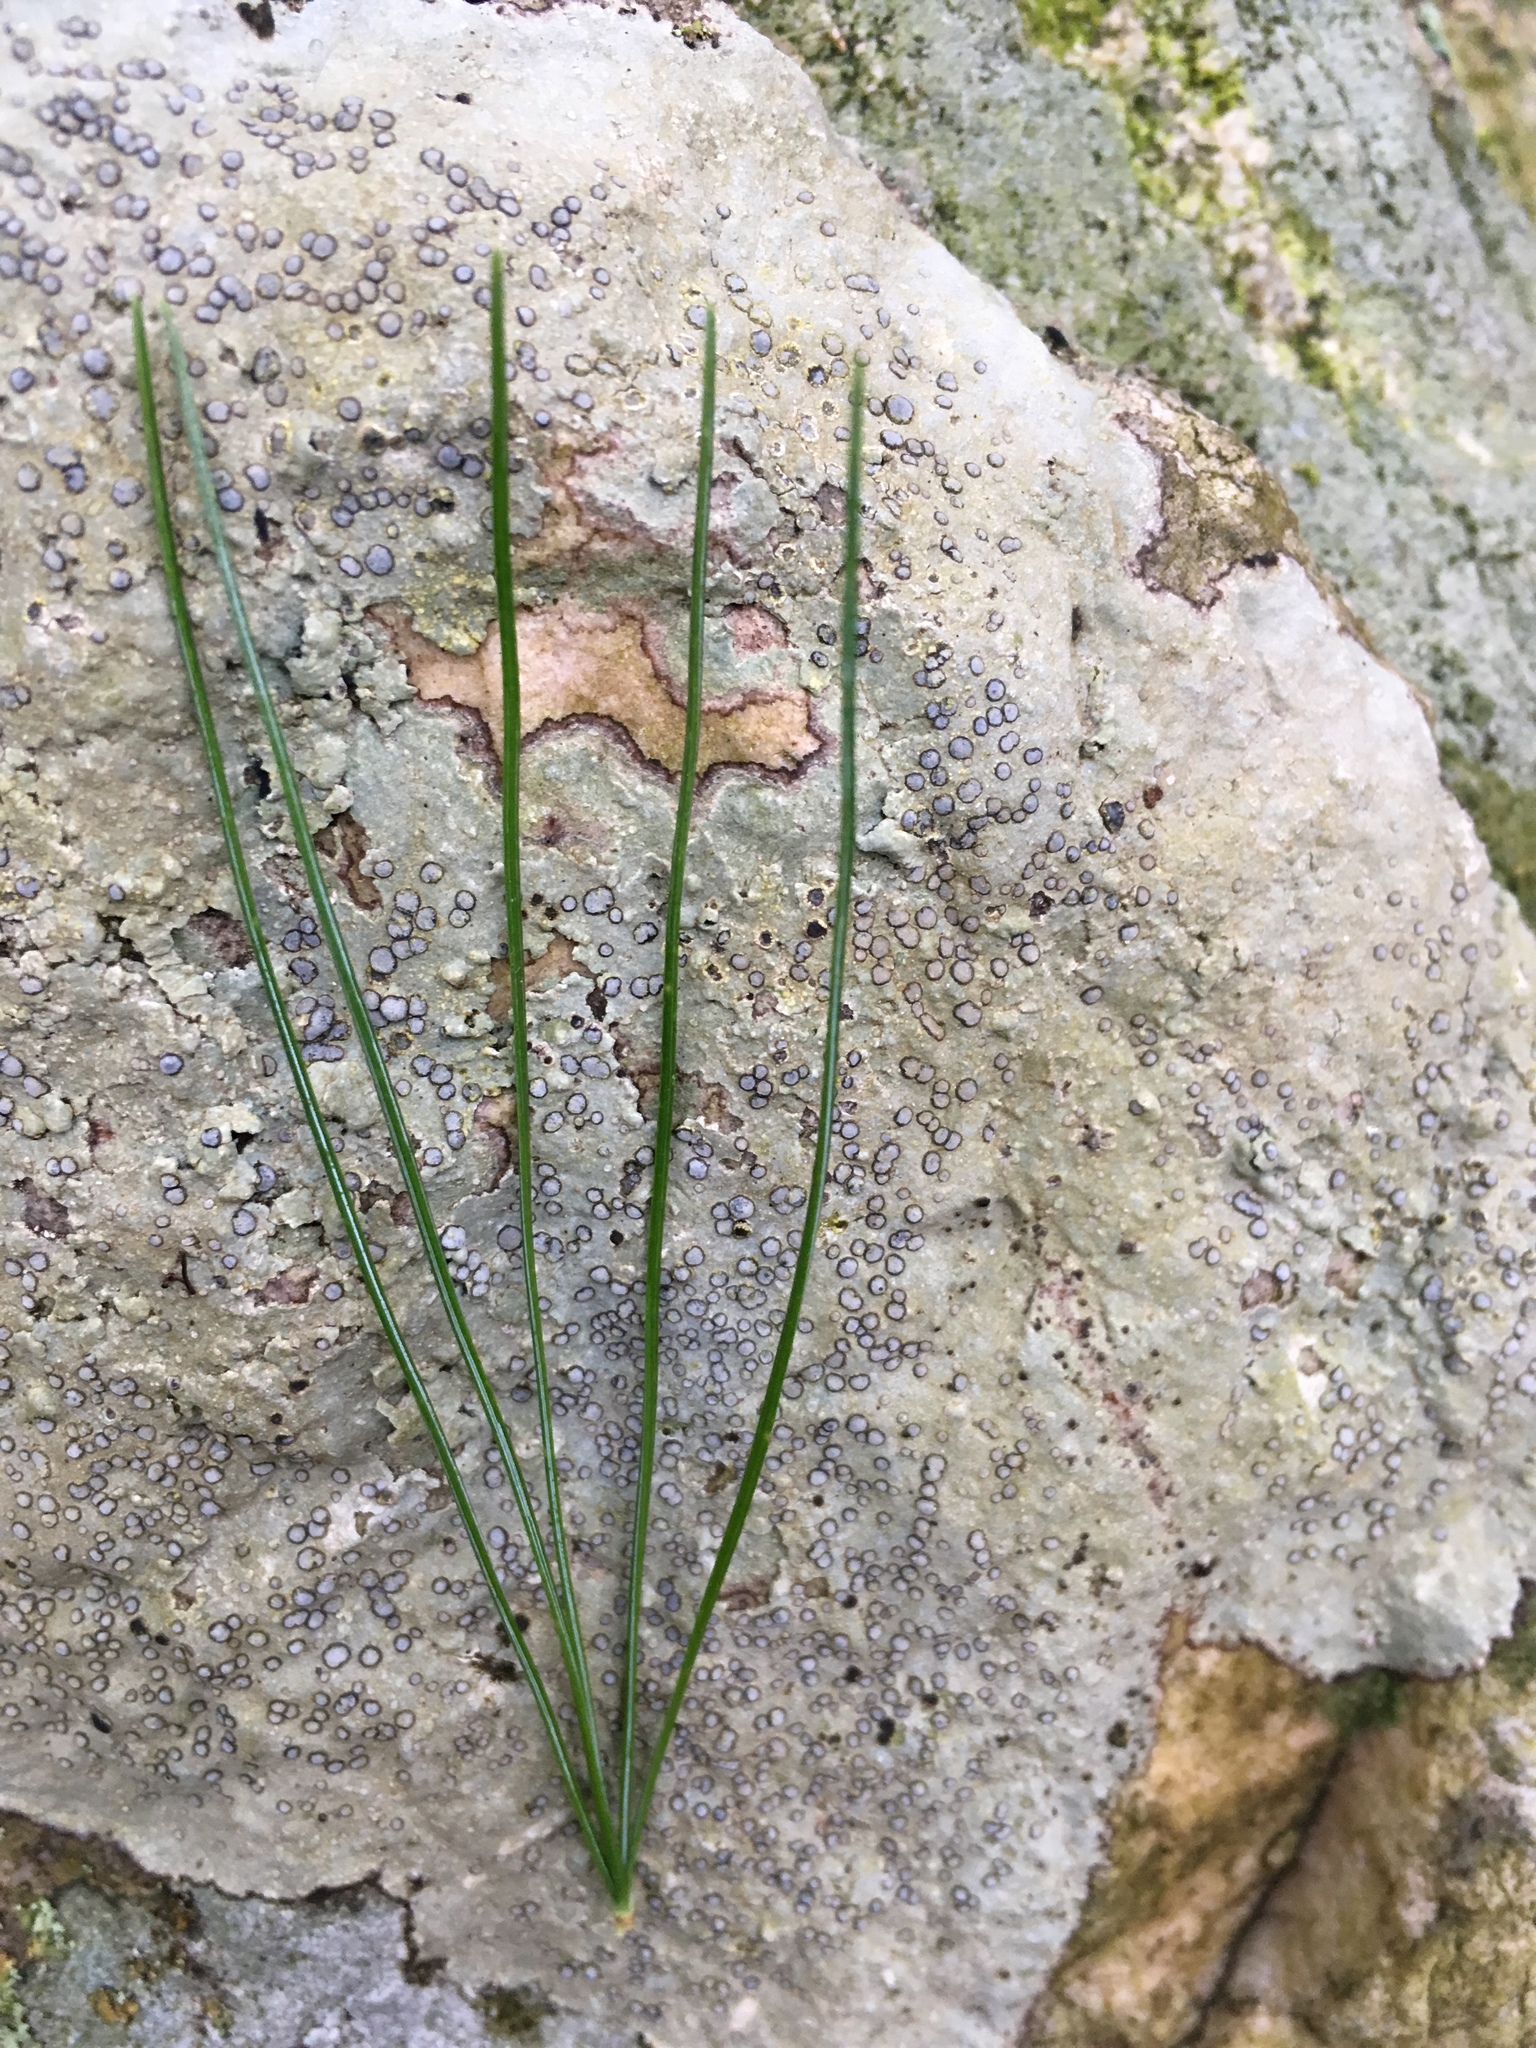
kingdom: Plantae
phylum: Tracheophyta
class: Pinopsida
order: Pinales
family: Pinaceae
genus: Pinus
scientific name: Pinus strobus
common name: Weymouth pine
